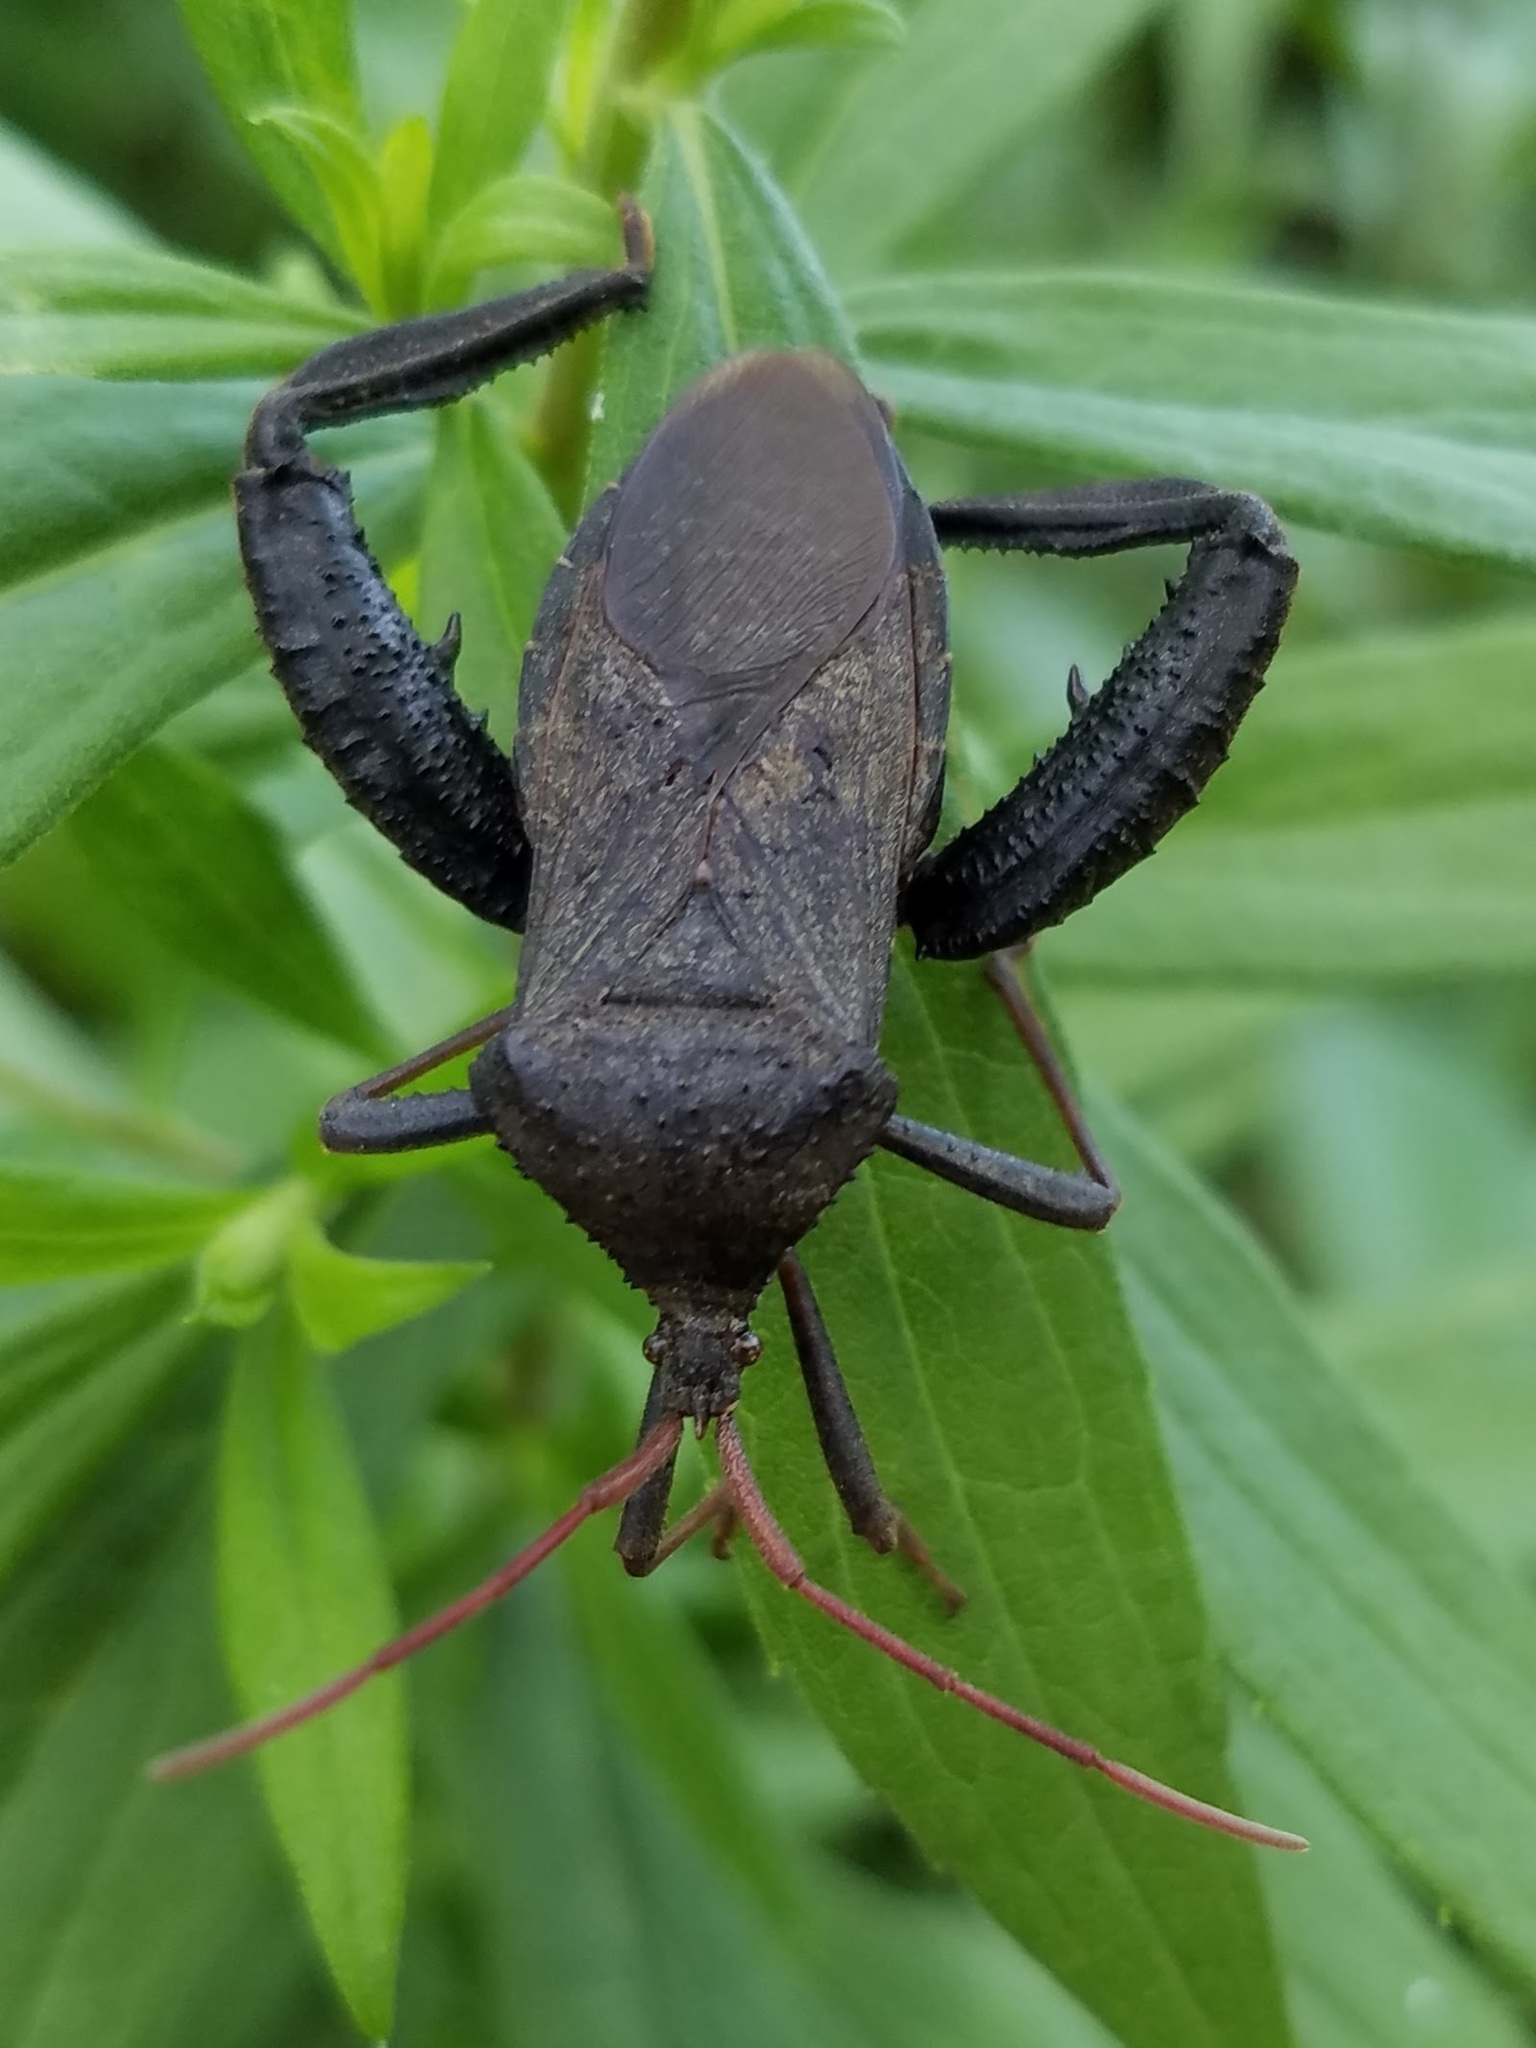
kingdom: Animalia
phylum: Arthropoda
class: Insecta
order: Hemiptera
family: Coreidae
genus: Acanthocephala
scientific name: Acanthocephala femorata
